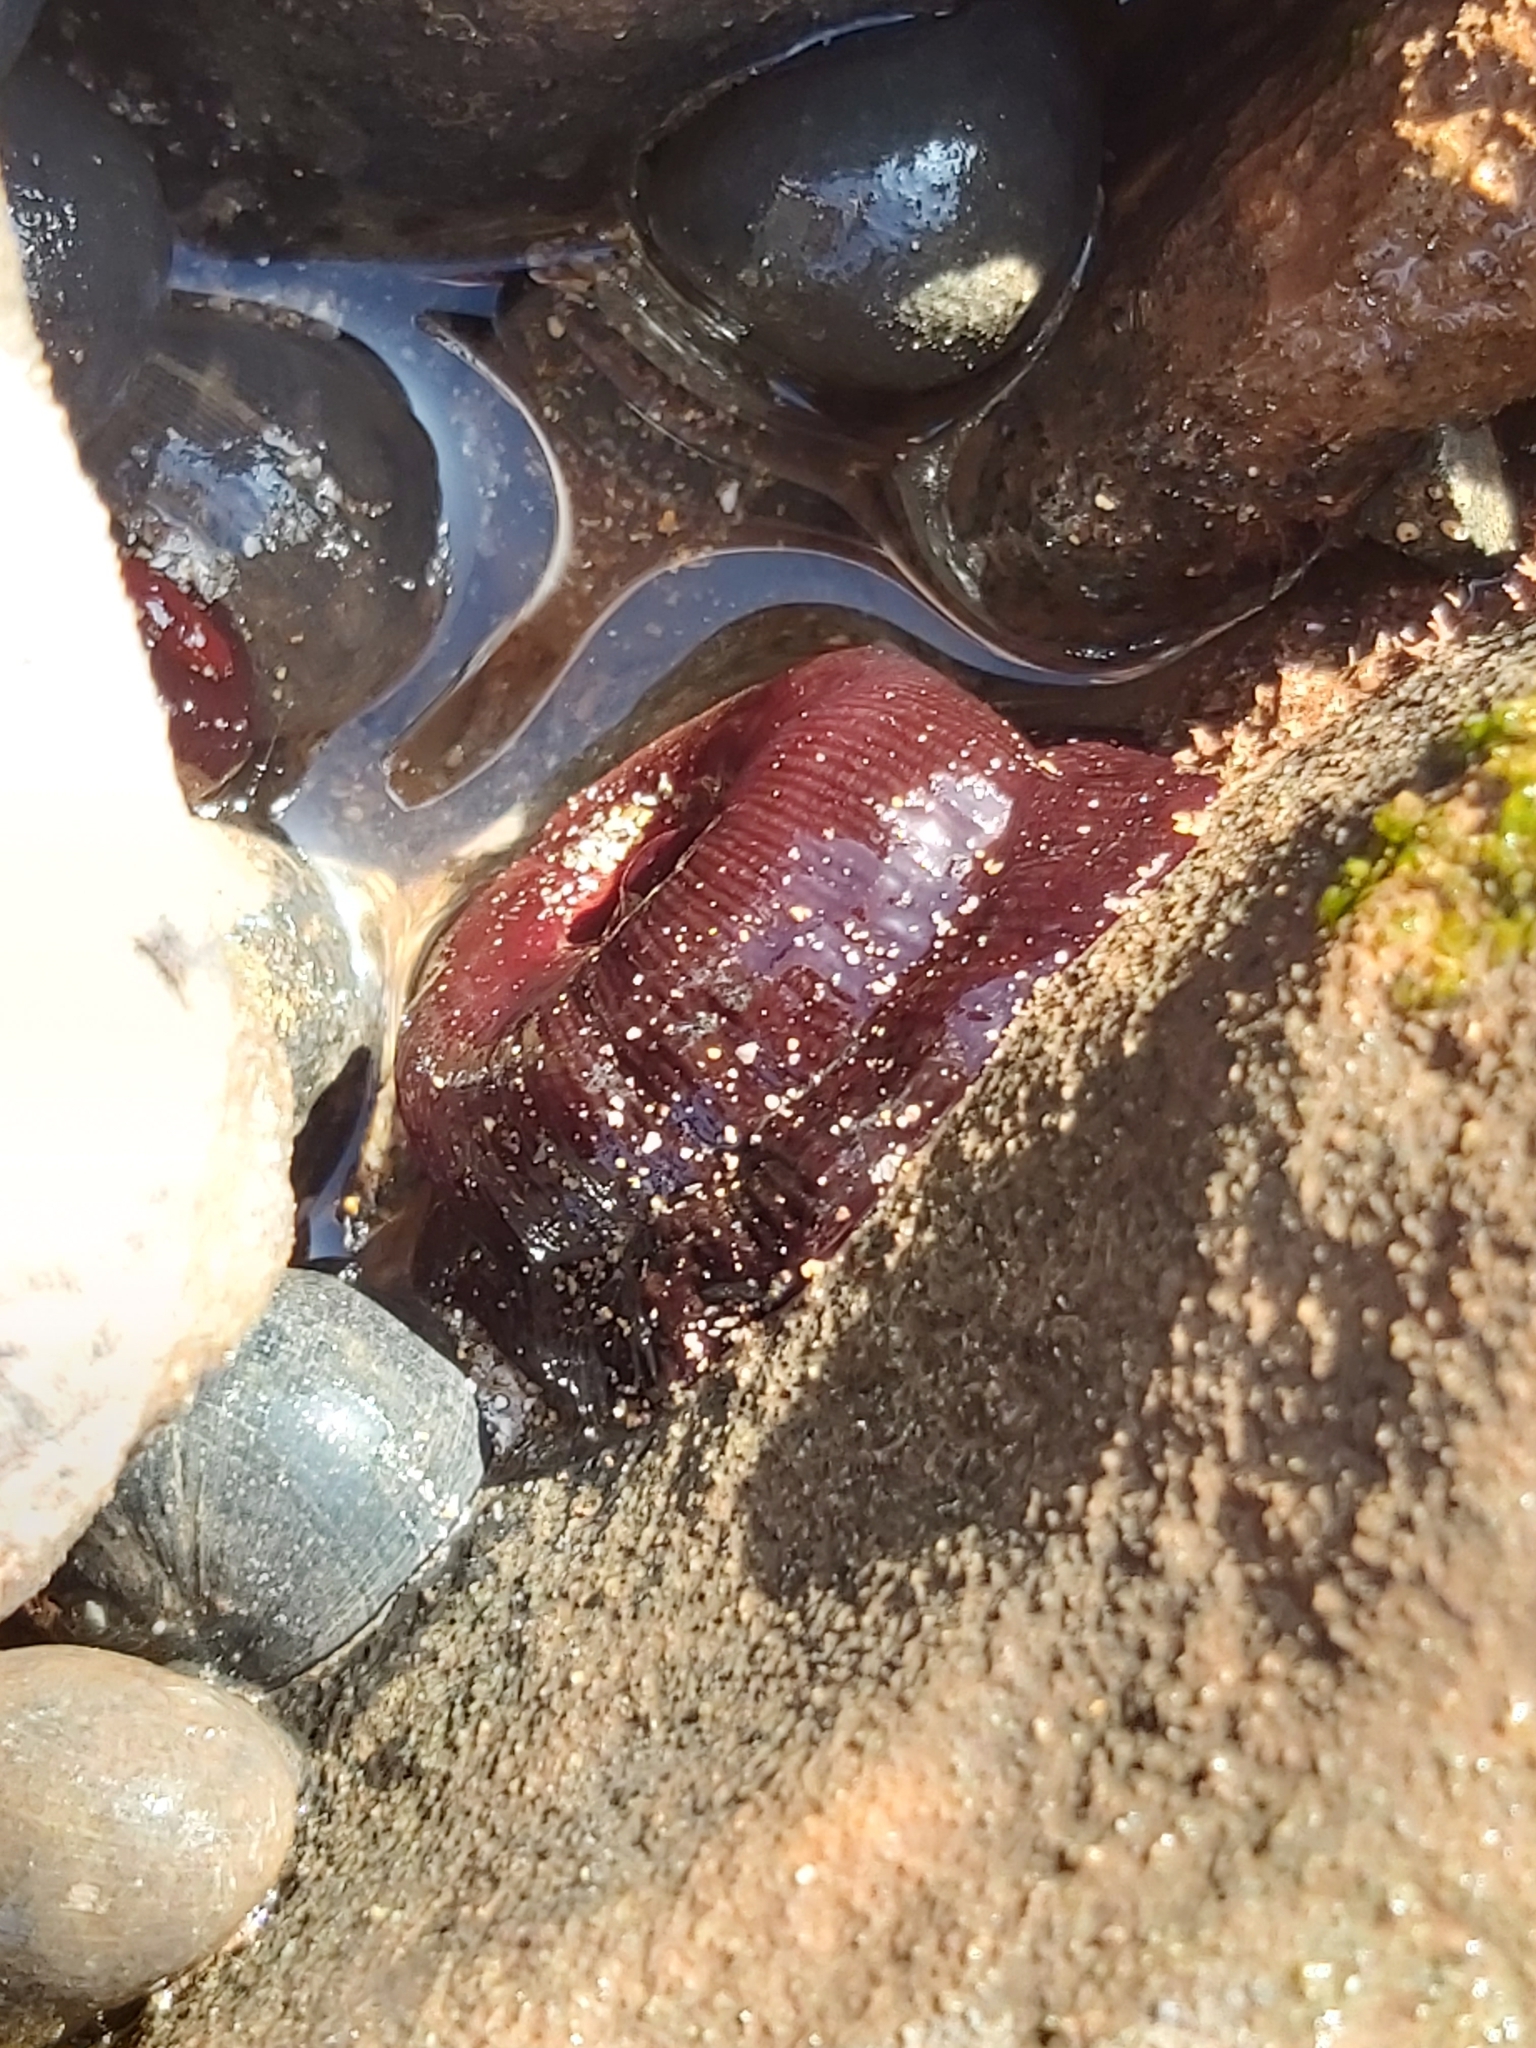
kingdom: Animalia
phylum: Cnidaria
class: Anthozoa
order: Actiniaria
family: Actiniidae
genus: Actinia
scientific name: Actinia tenebrosa
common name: Waratah anemone
